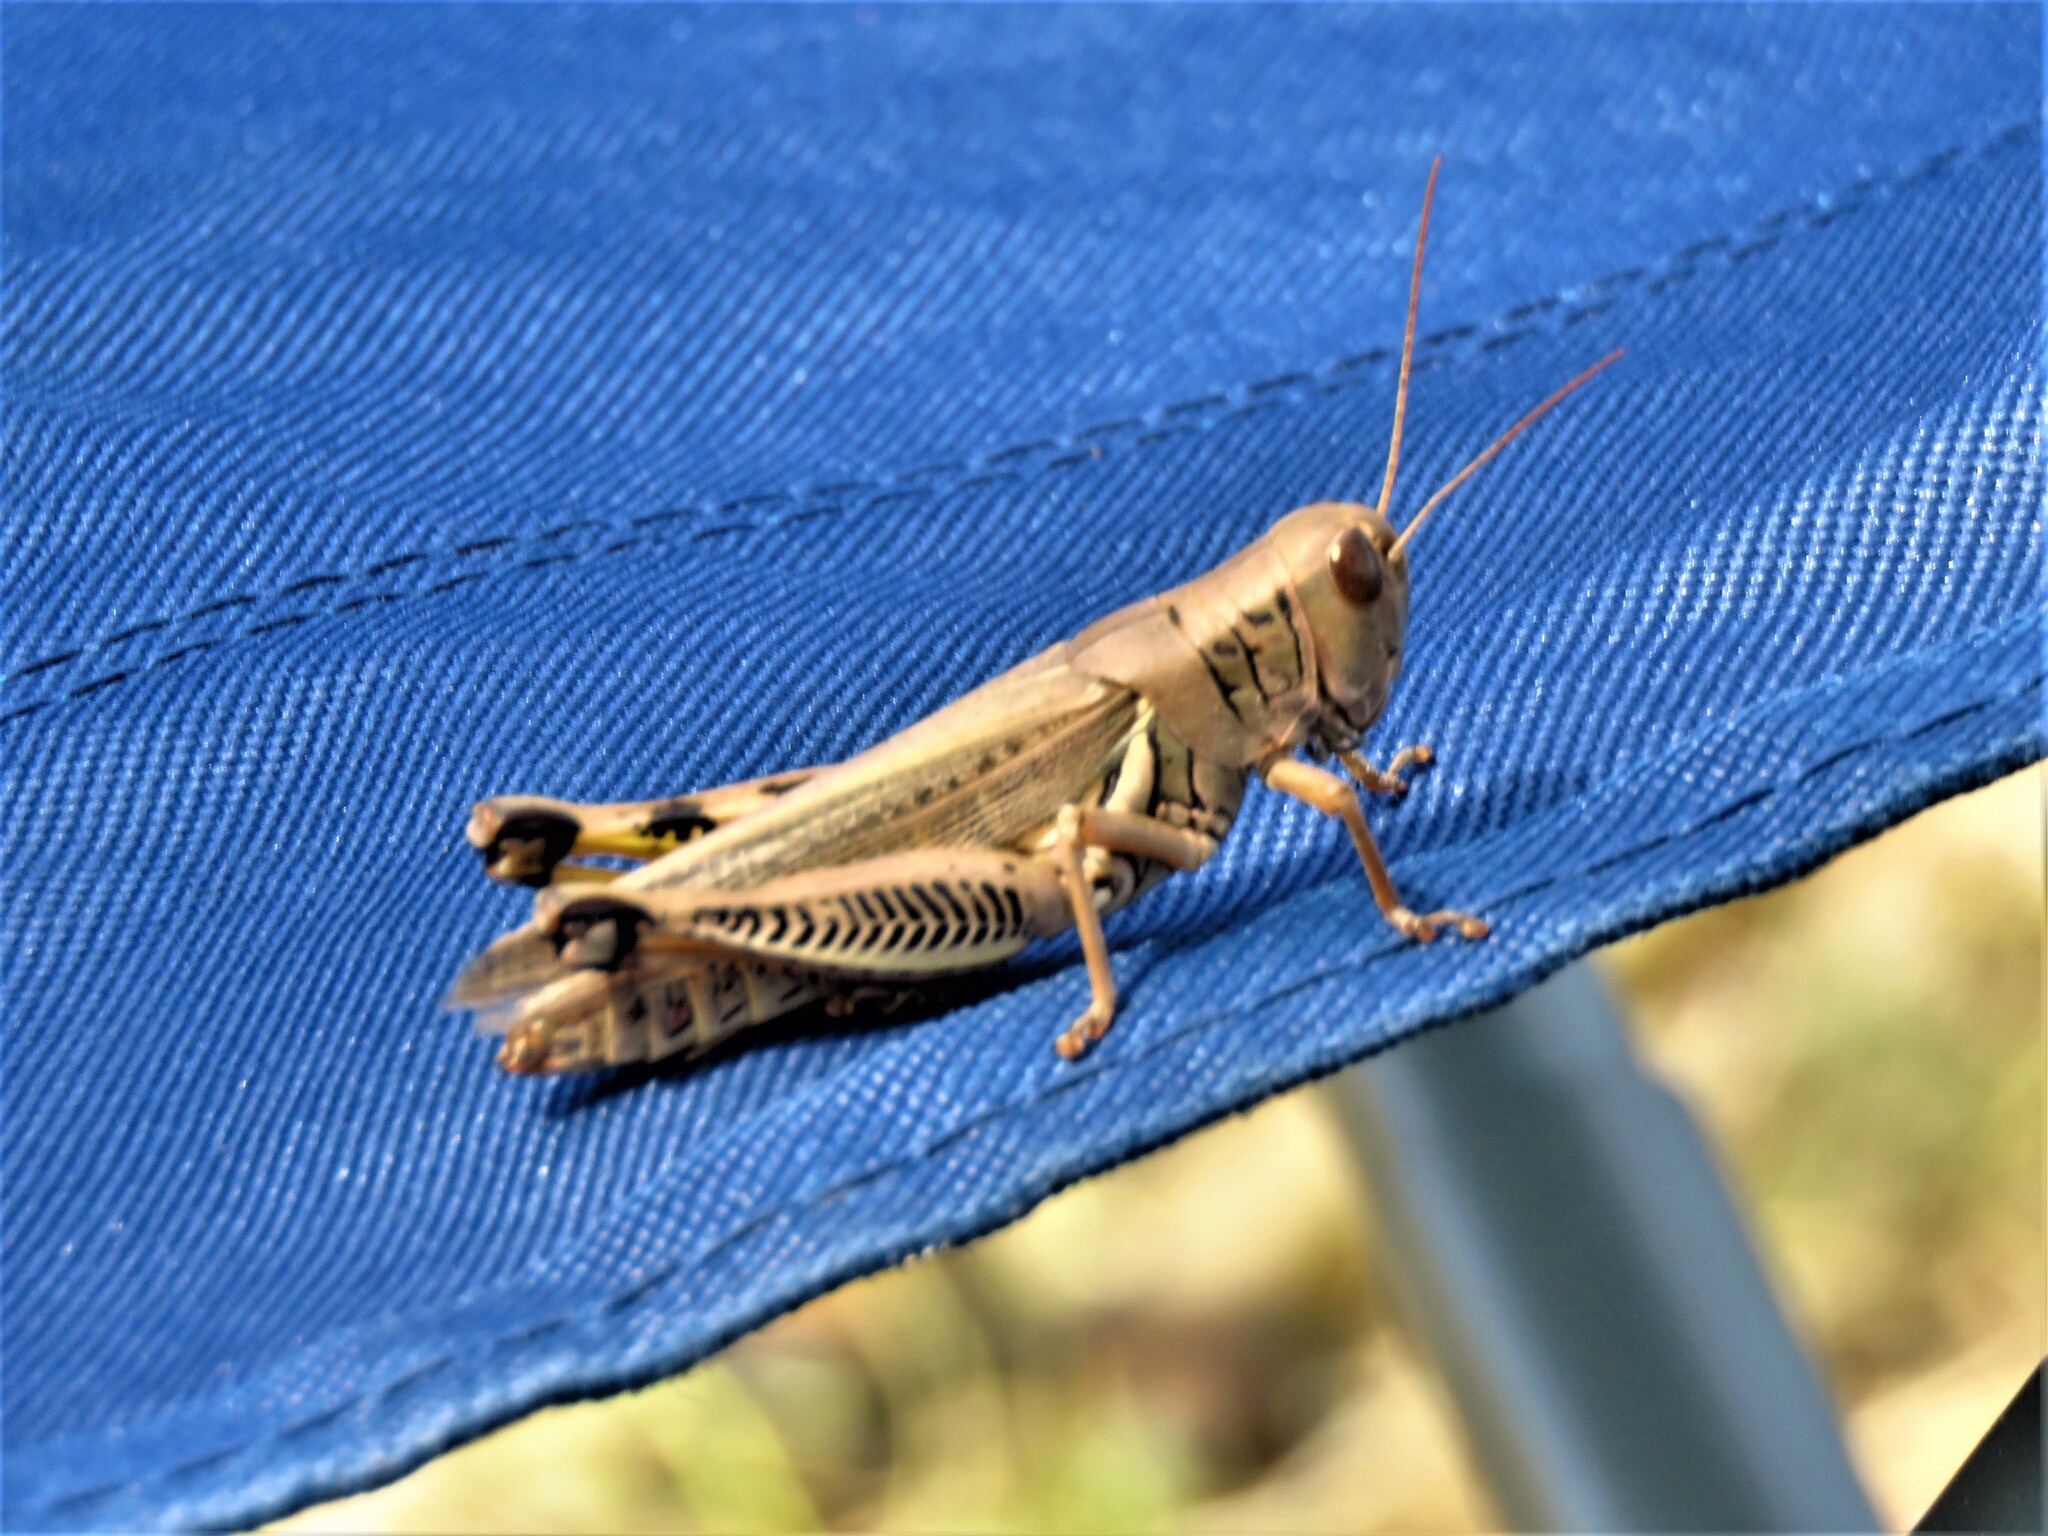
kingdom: Animalia
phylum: Arthropoda
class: Insecta
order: Orthoptera
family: Acrididae
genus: Melanoplus
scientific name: Melanoplus differentialis
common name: Differential grasshopper
